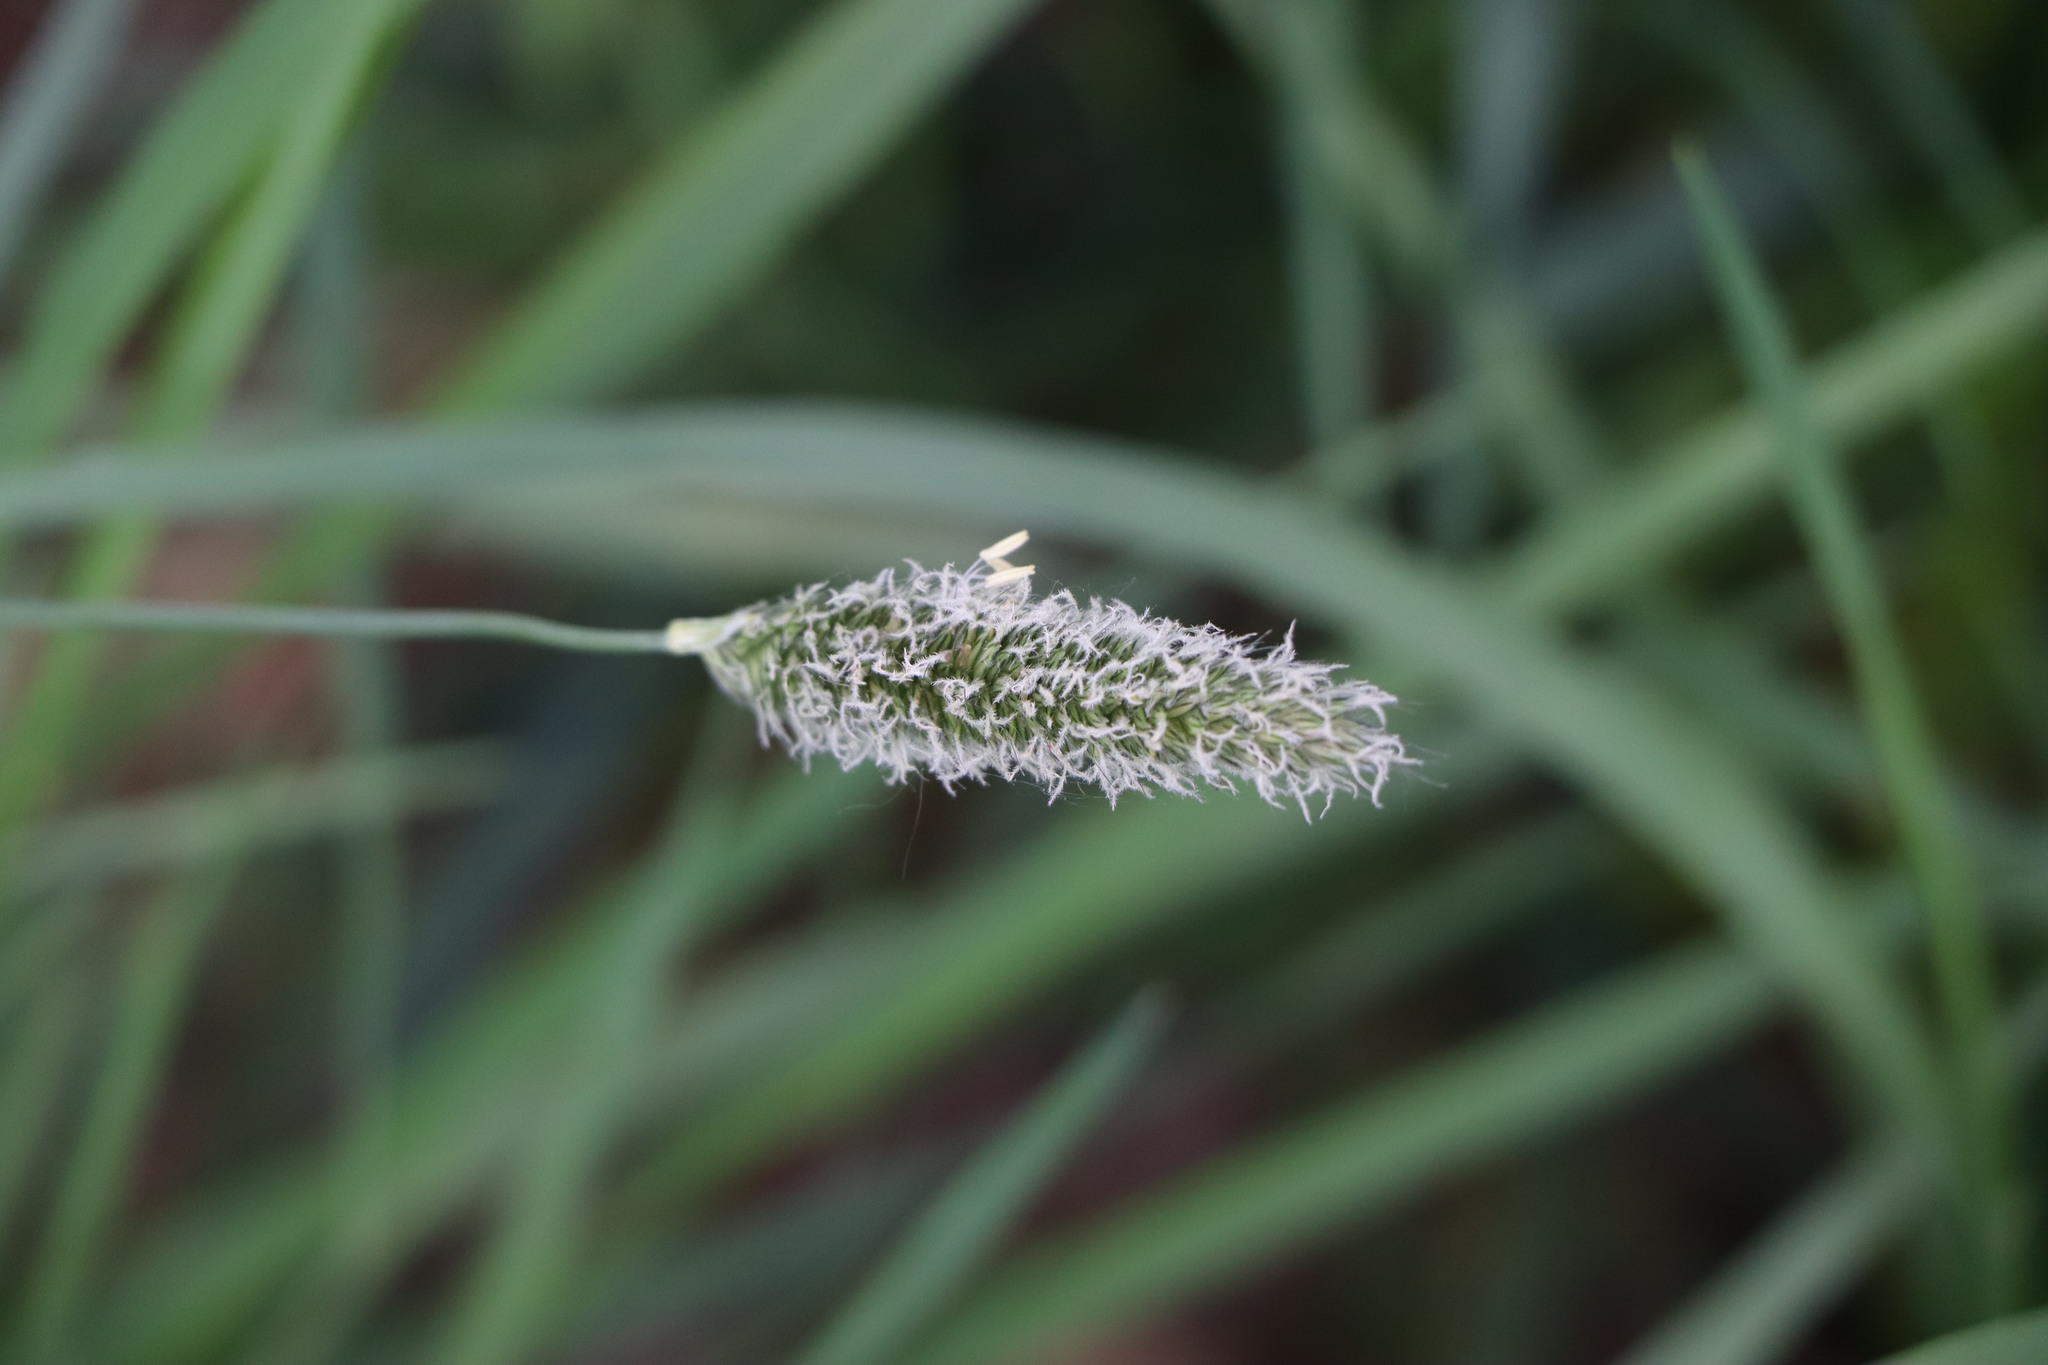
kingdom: Plantae
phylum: Tracheophyta
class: Liliopsida
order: Poales
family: Poaceae
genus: Alopecurus
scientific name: Alopecurus pratensis
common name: Meadow foxtail
